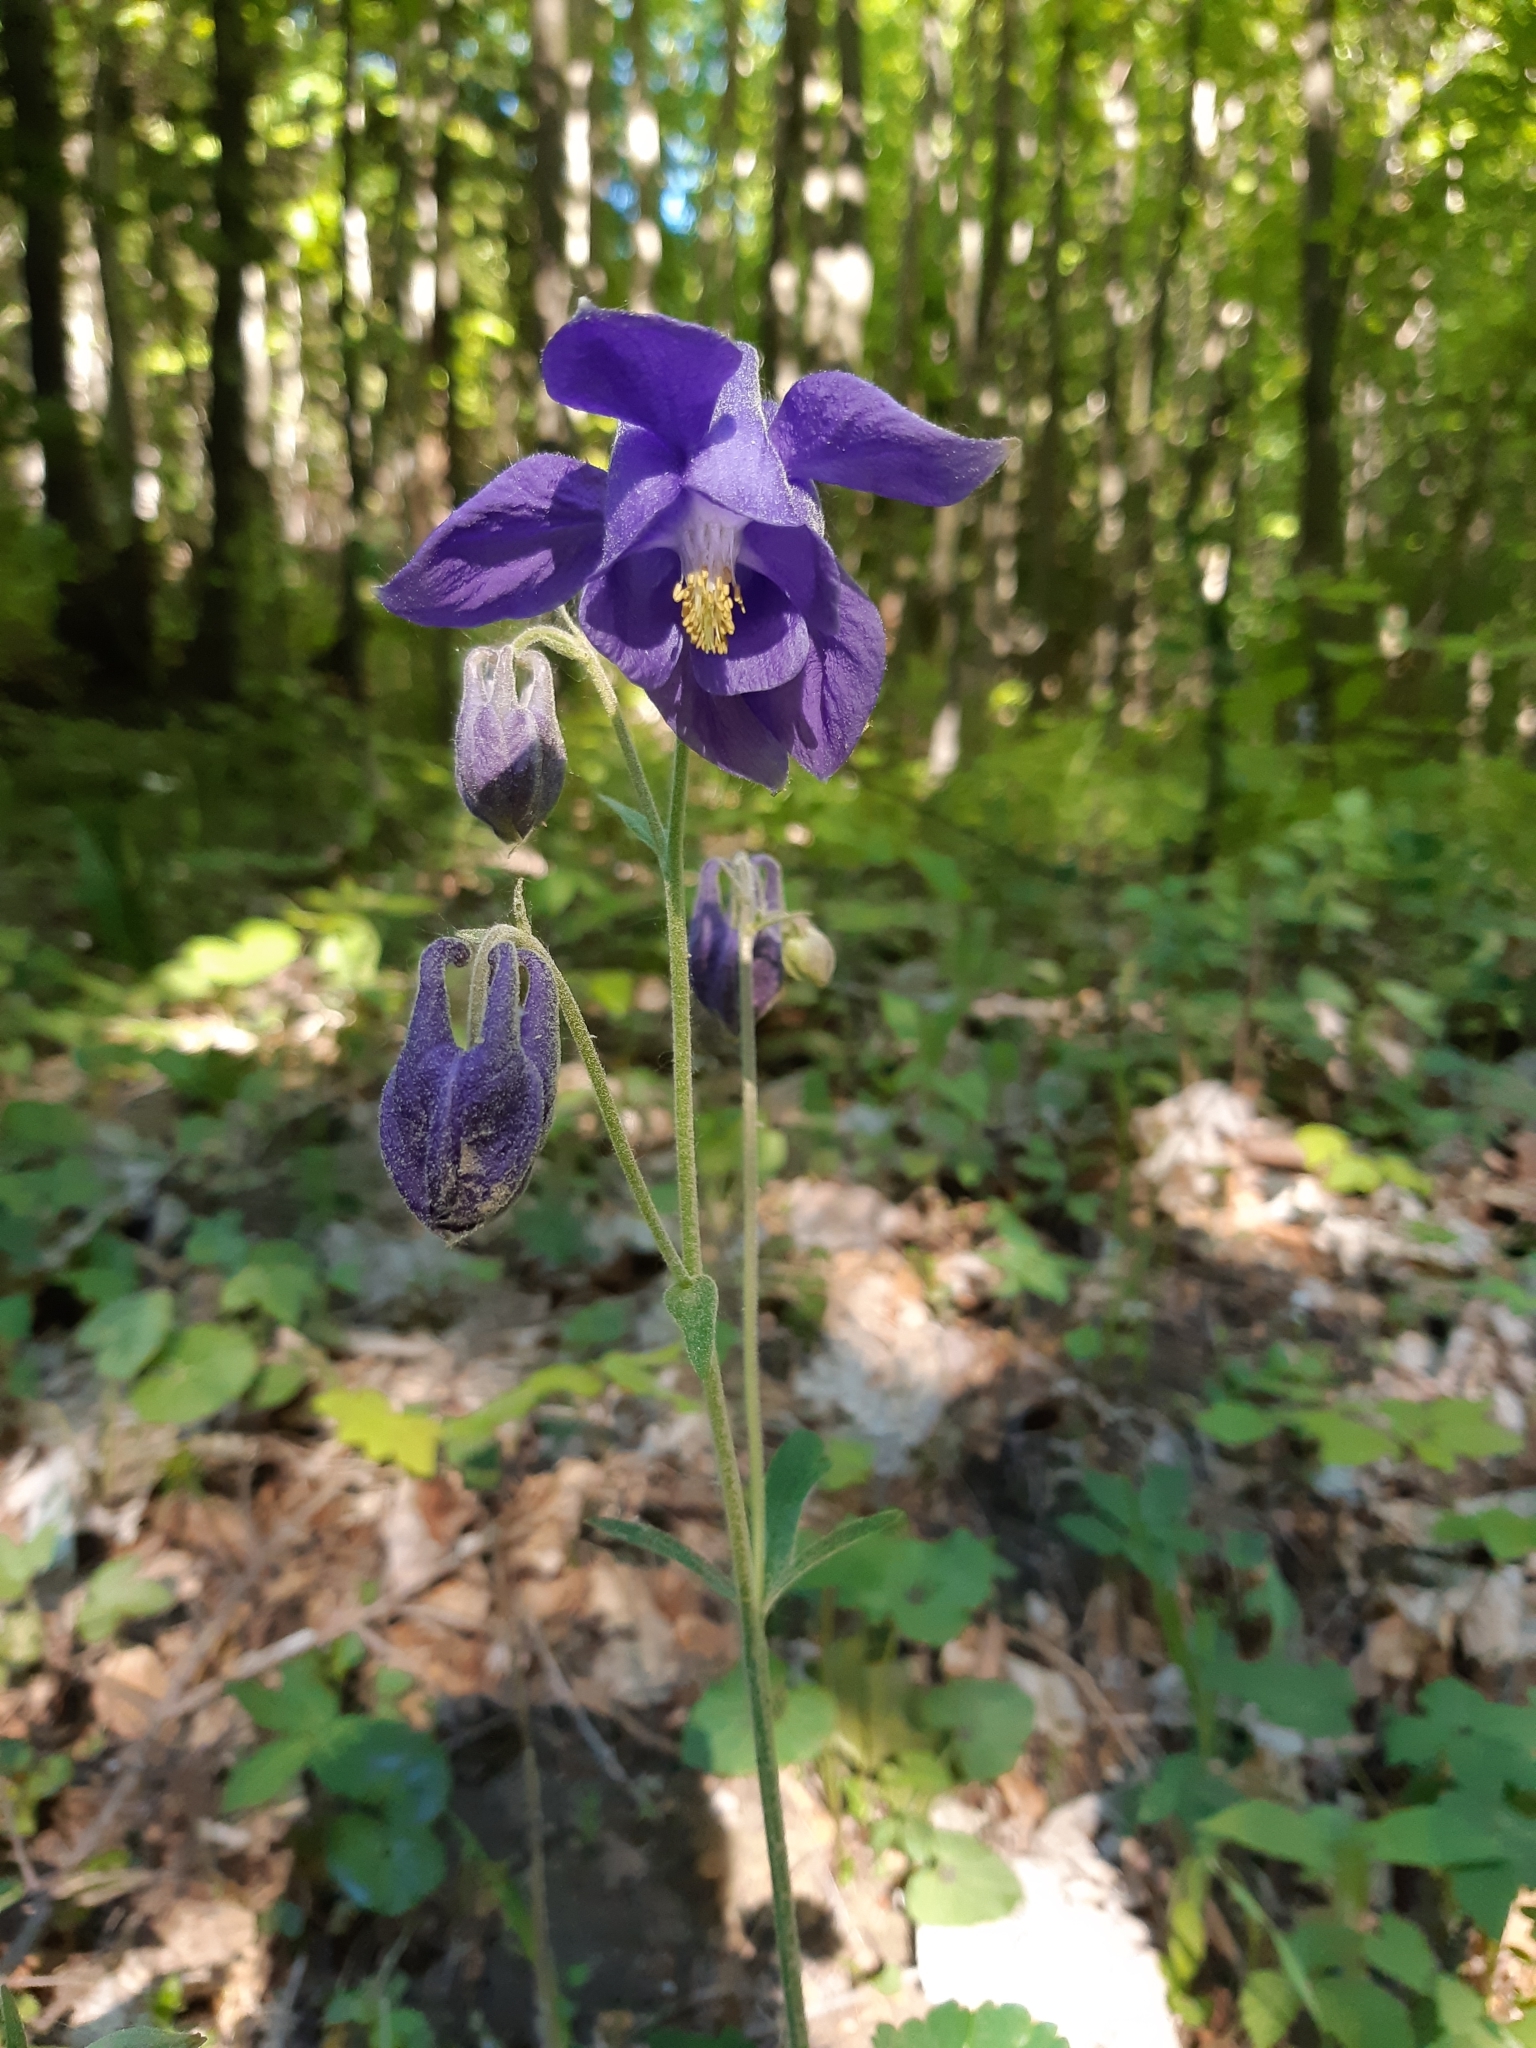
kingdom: Plantae
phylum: Tracheophyta
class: Magnoliopsida
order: Ranunculales
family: Ranunculaceae
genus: Aquilegia
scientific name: Aquilegia vulgaris
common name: Columbine
